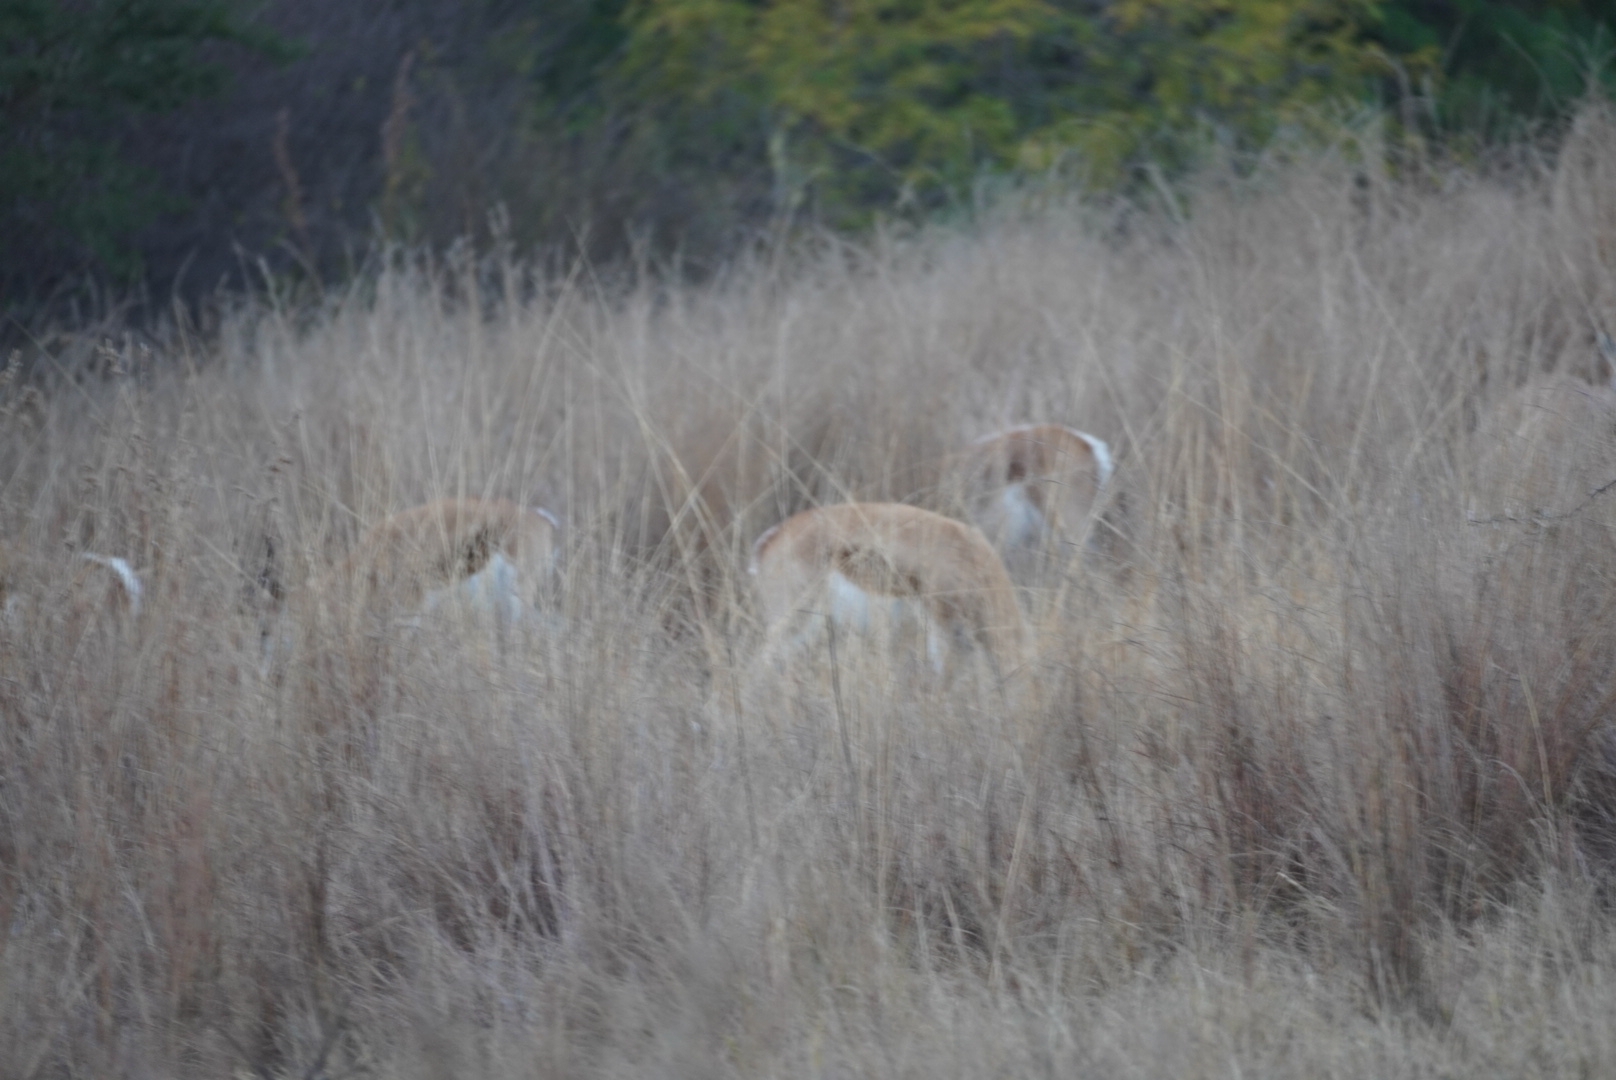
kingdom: Animalia
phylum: Chordata
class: Mammalia
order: Artiodactyla
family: Bovidae
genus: Antidorcas
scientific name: Antidorcas marsupialis
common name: Springbok
